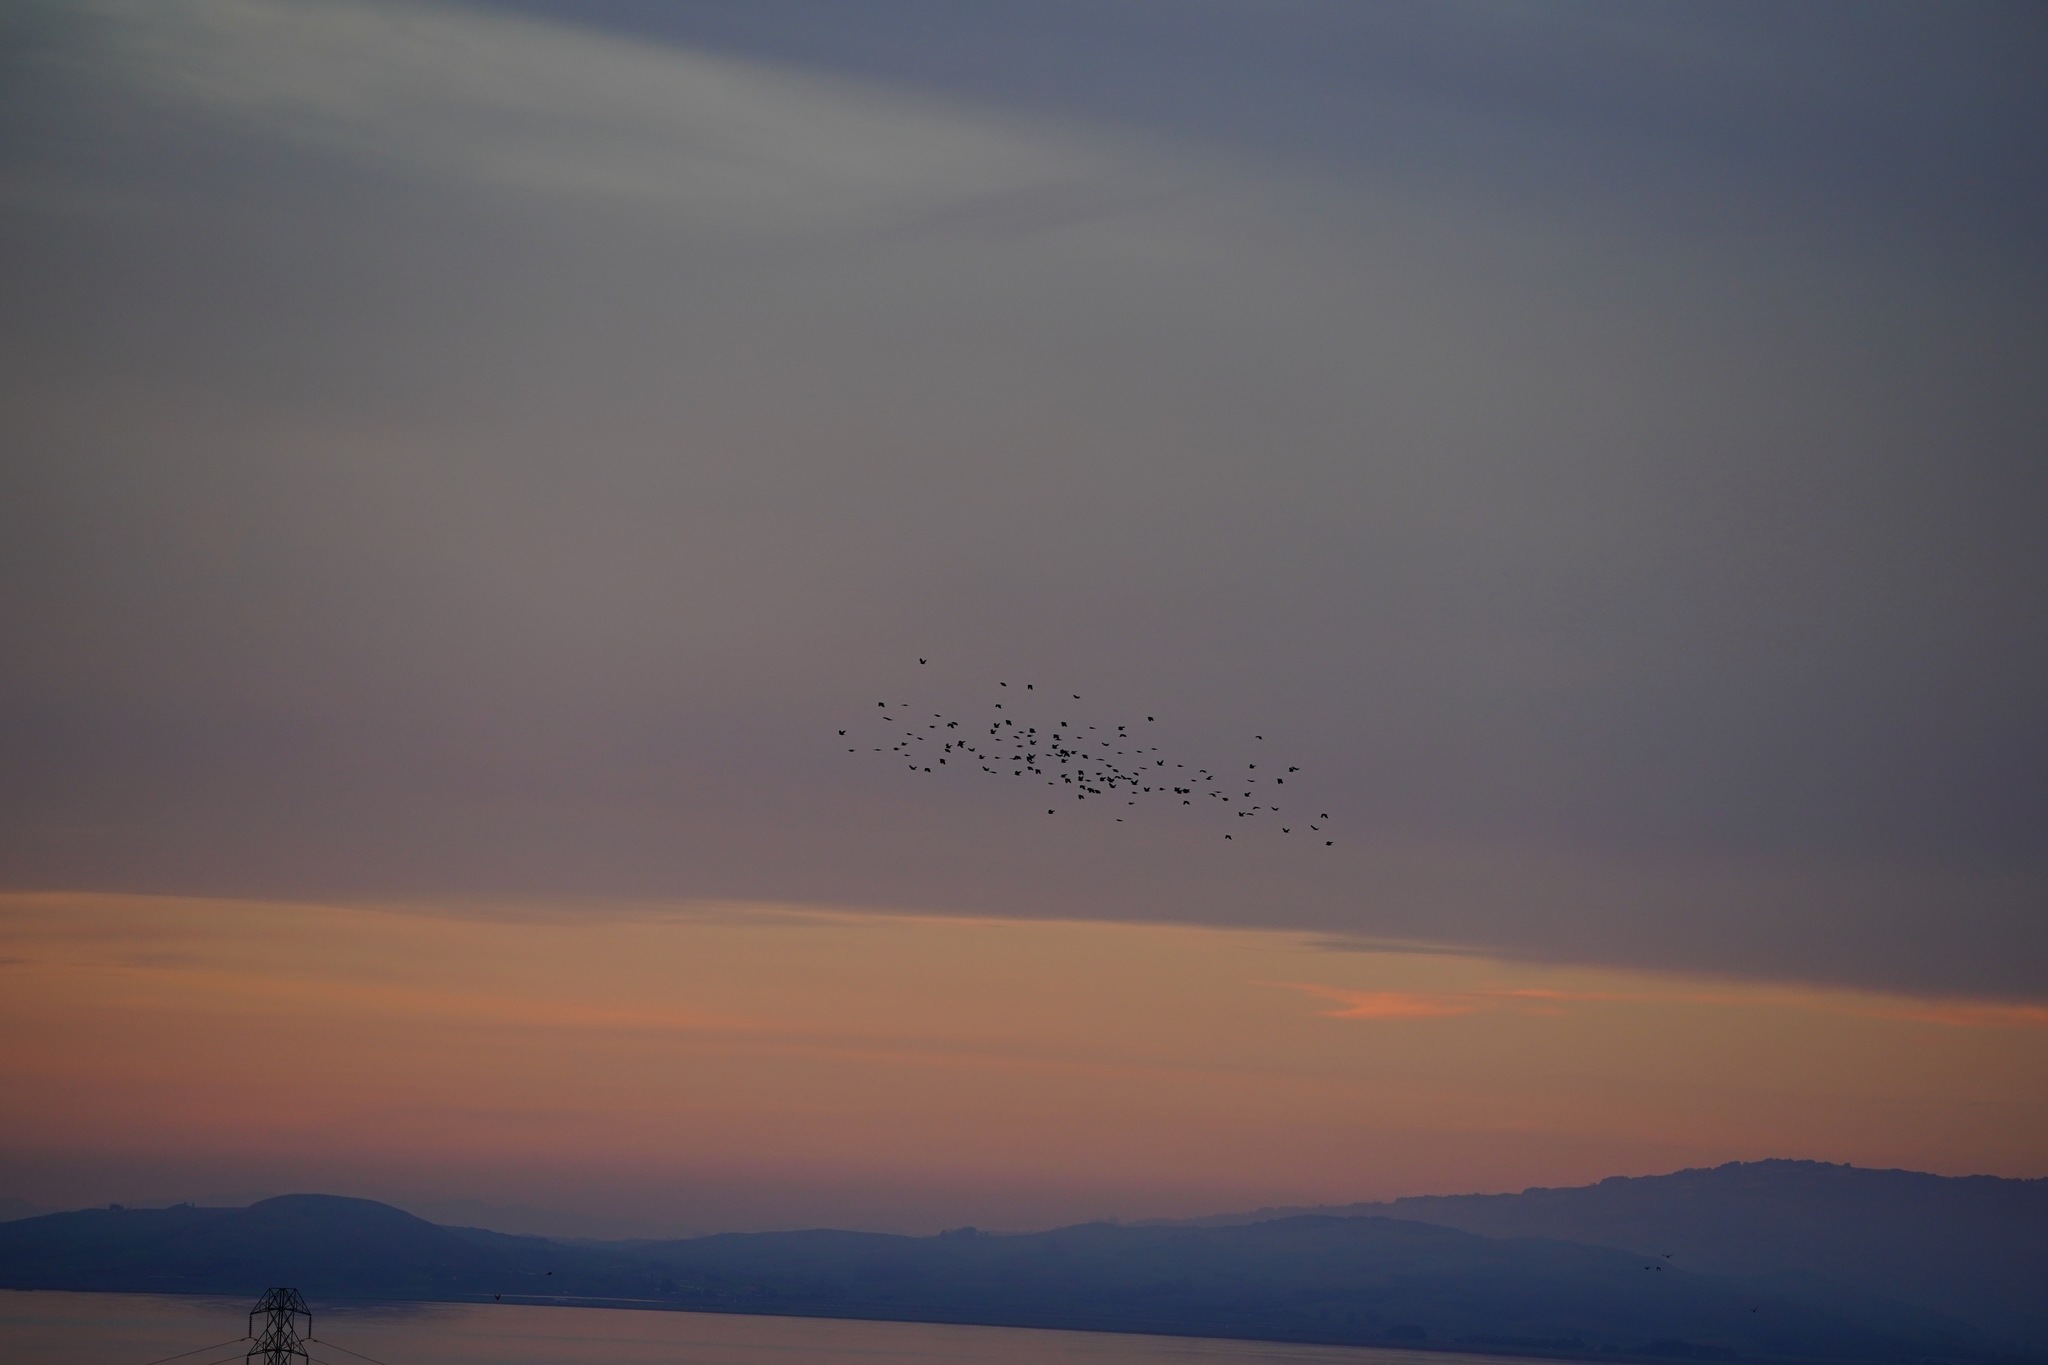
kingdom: Animalia
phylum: Chordata
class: Aves
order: Passeriformes
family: Corvidae
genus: Corvus
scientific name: Corvus brachyrhynchos
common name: American crow
